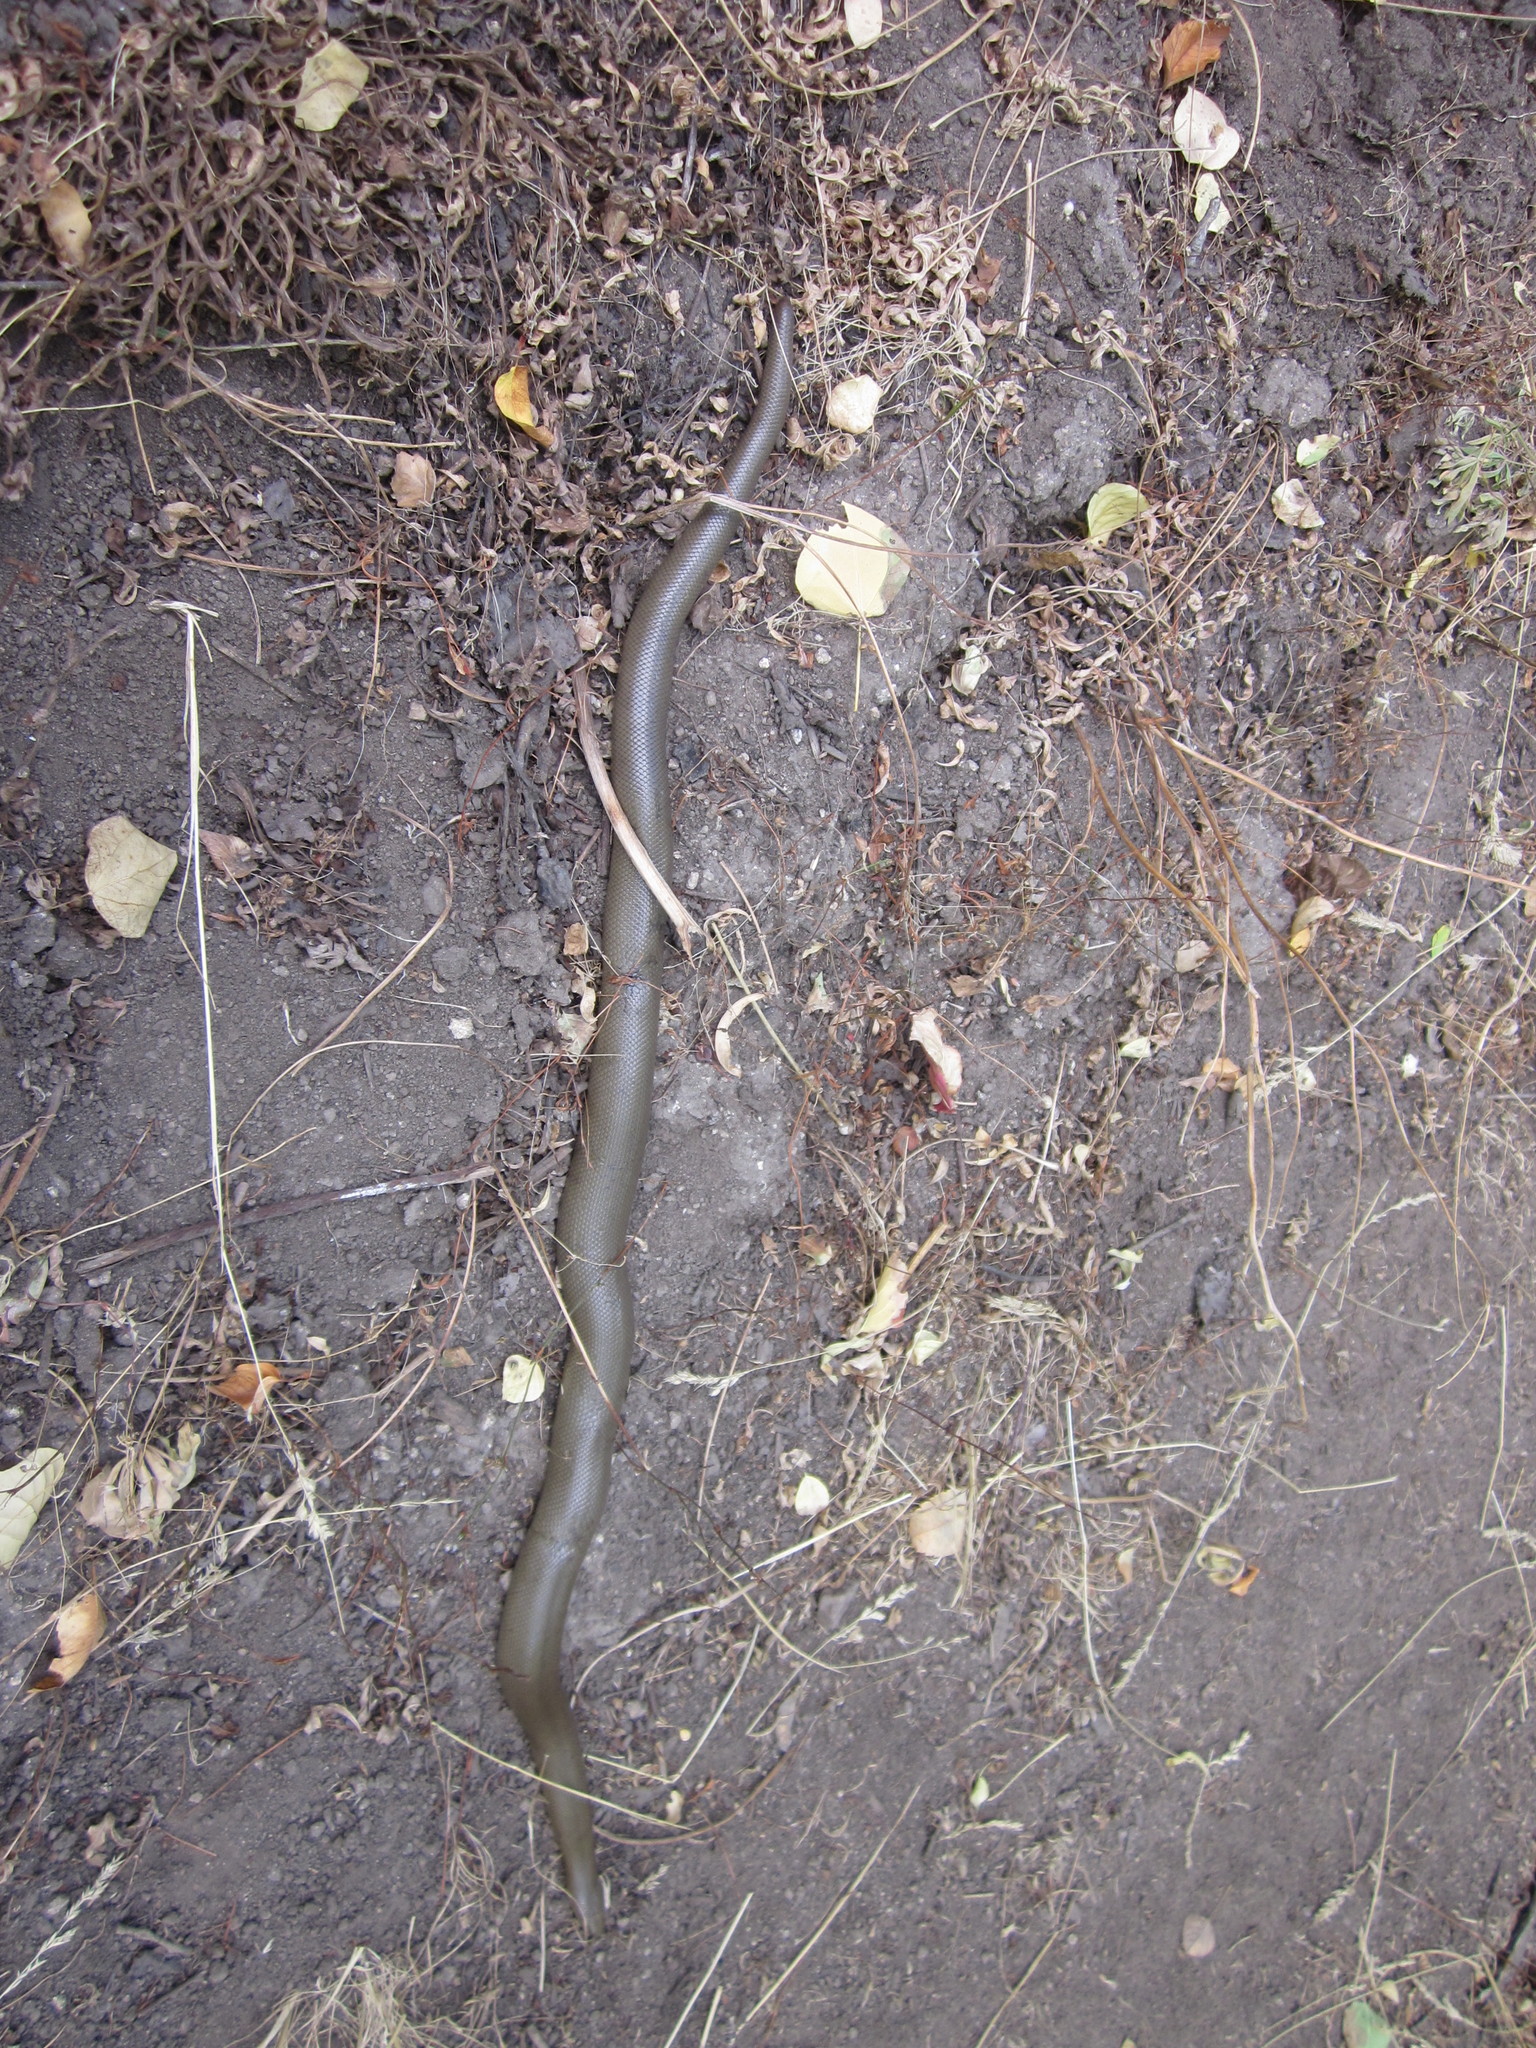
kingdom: Animalia
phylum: Chordata
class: Squamata
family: Boidae
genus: Charina
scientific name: Charina bottae
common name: Northern rubber boa
